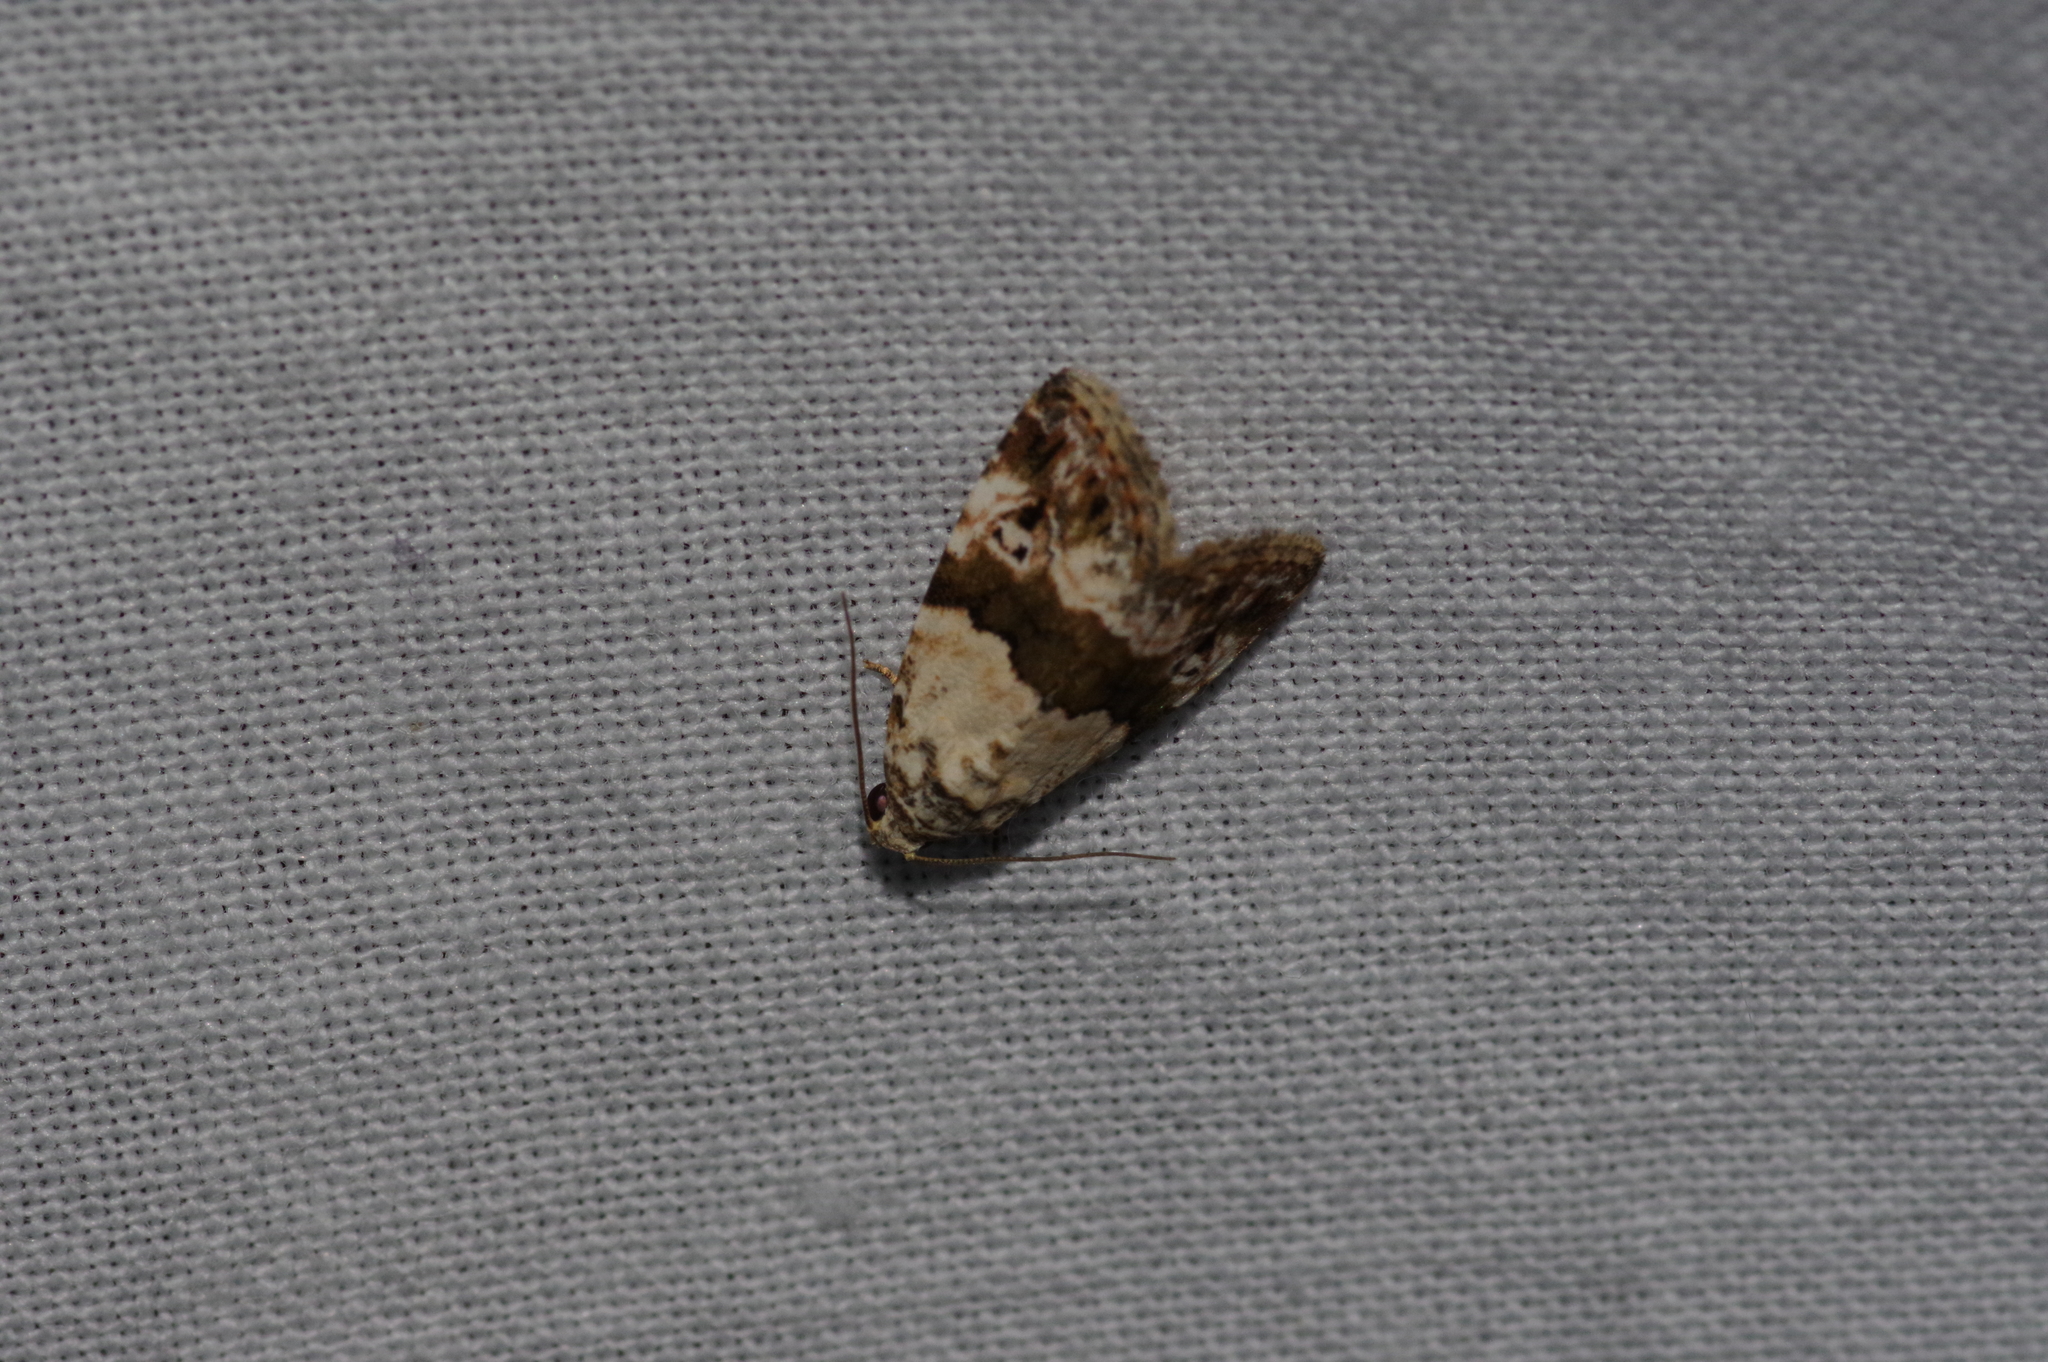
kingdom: Animalia
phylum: Arthropoda
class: Insecta
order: Lepidoptera
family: Noctuidae
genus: Maliattha
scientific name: Maliattha signifera
